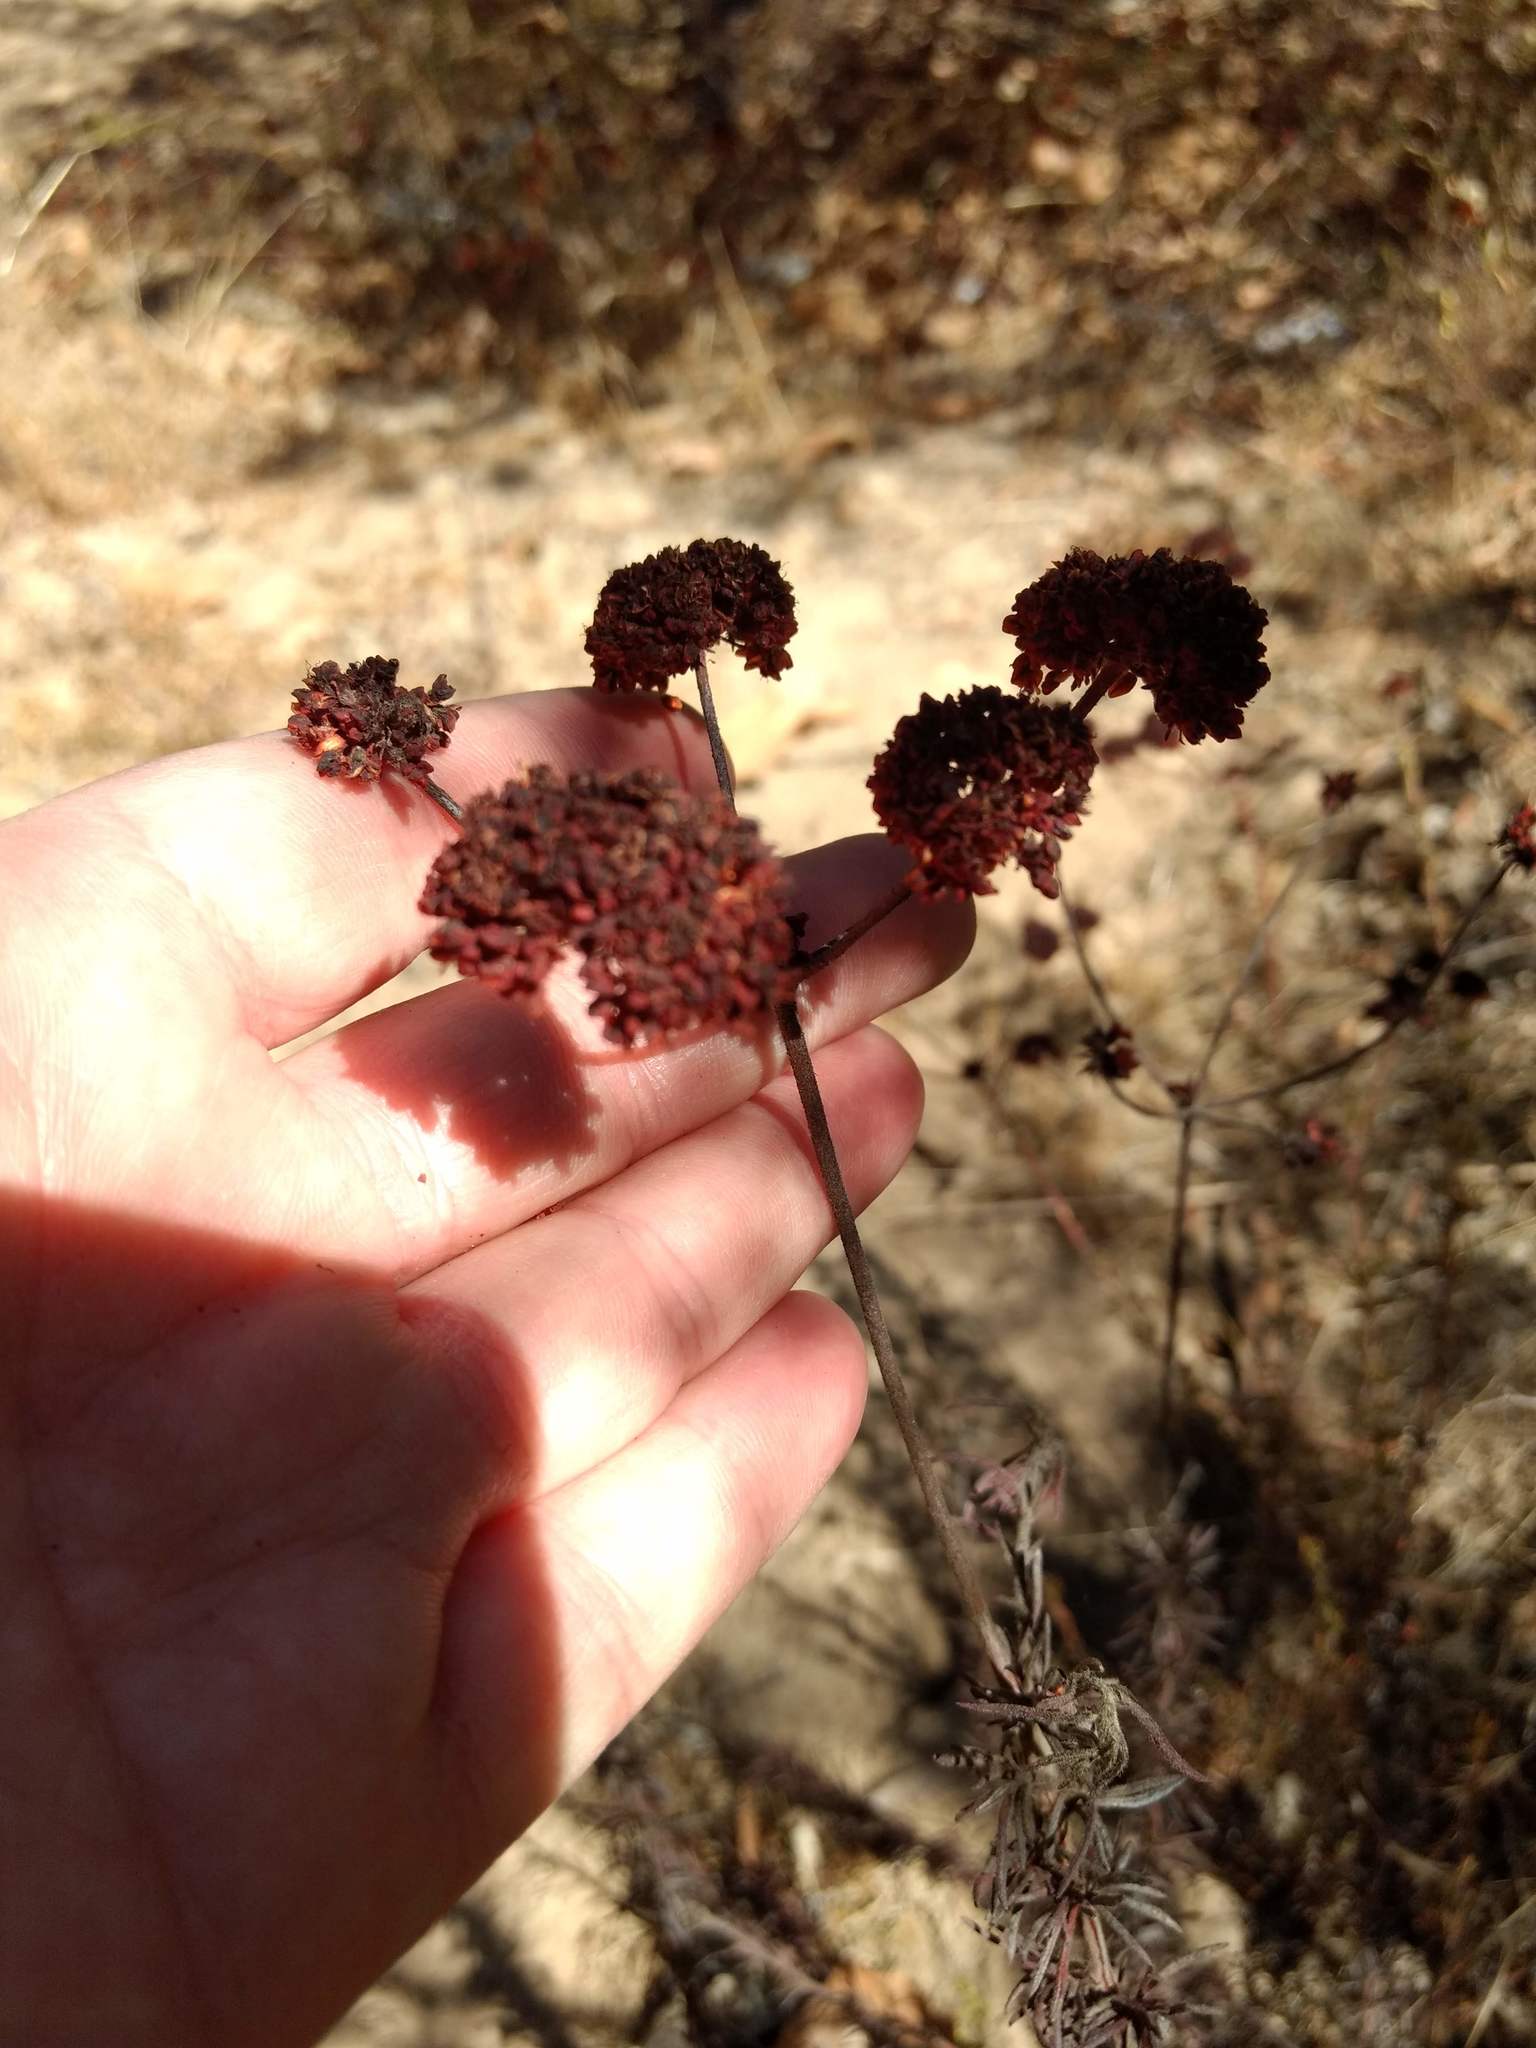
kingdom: Plantae
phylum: Tracheophyta
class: Magnoliopsida
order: Caryophyllales
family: Polygonaceae
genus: Eriogonum
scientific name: Eriogonum fasciculatum
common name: California wild buckwheat
